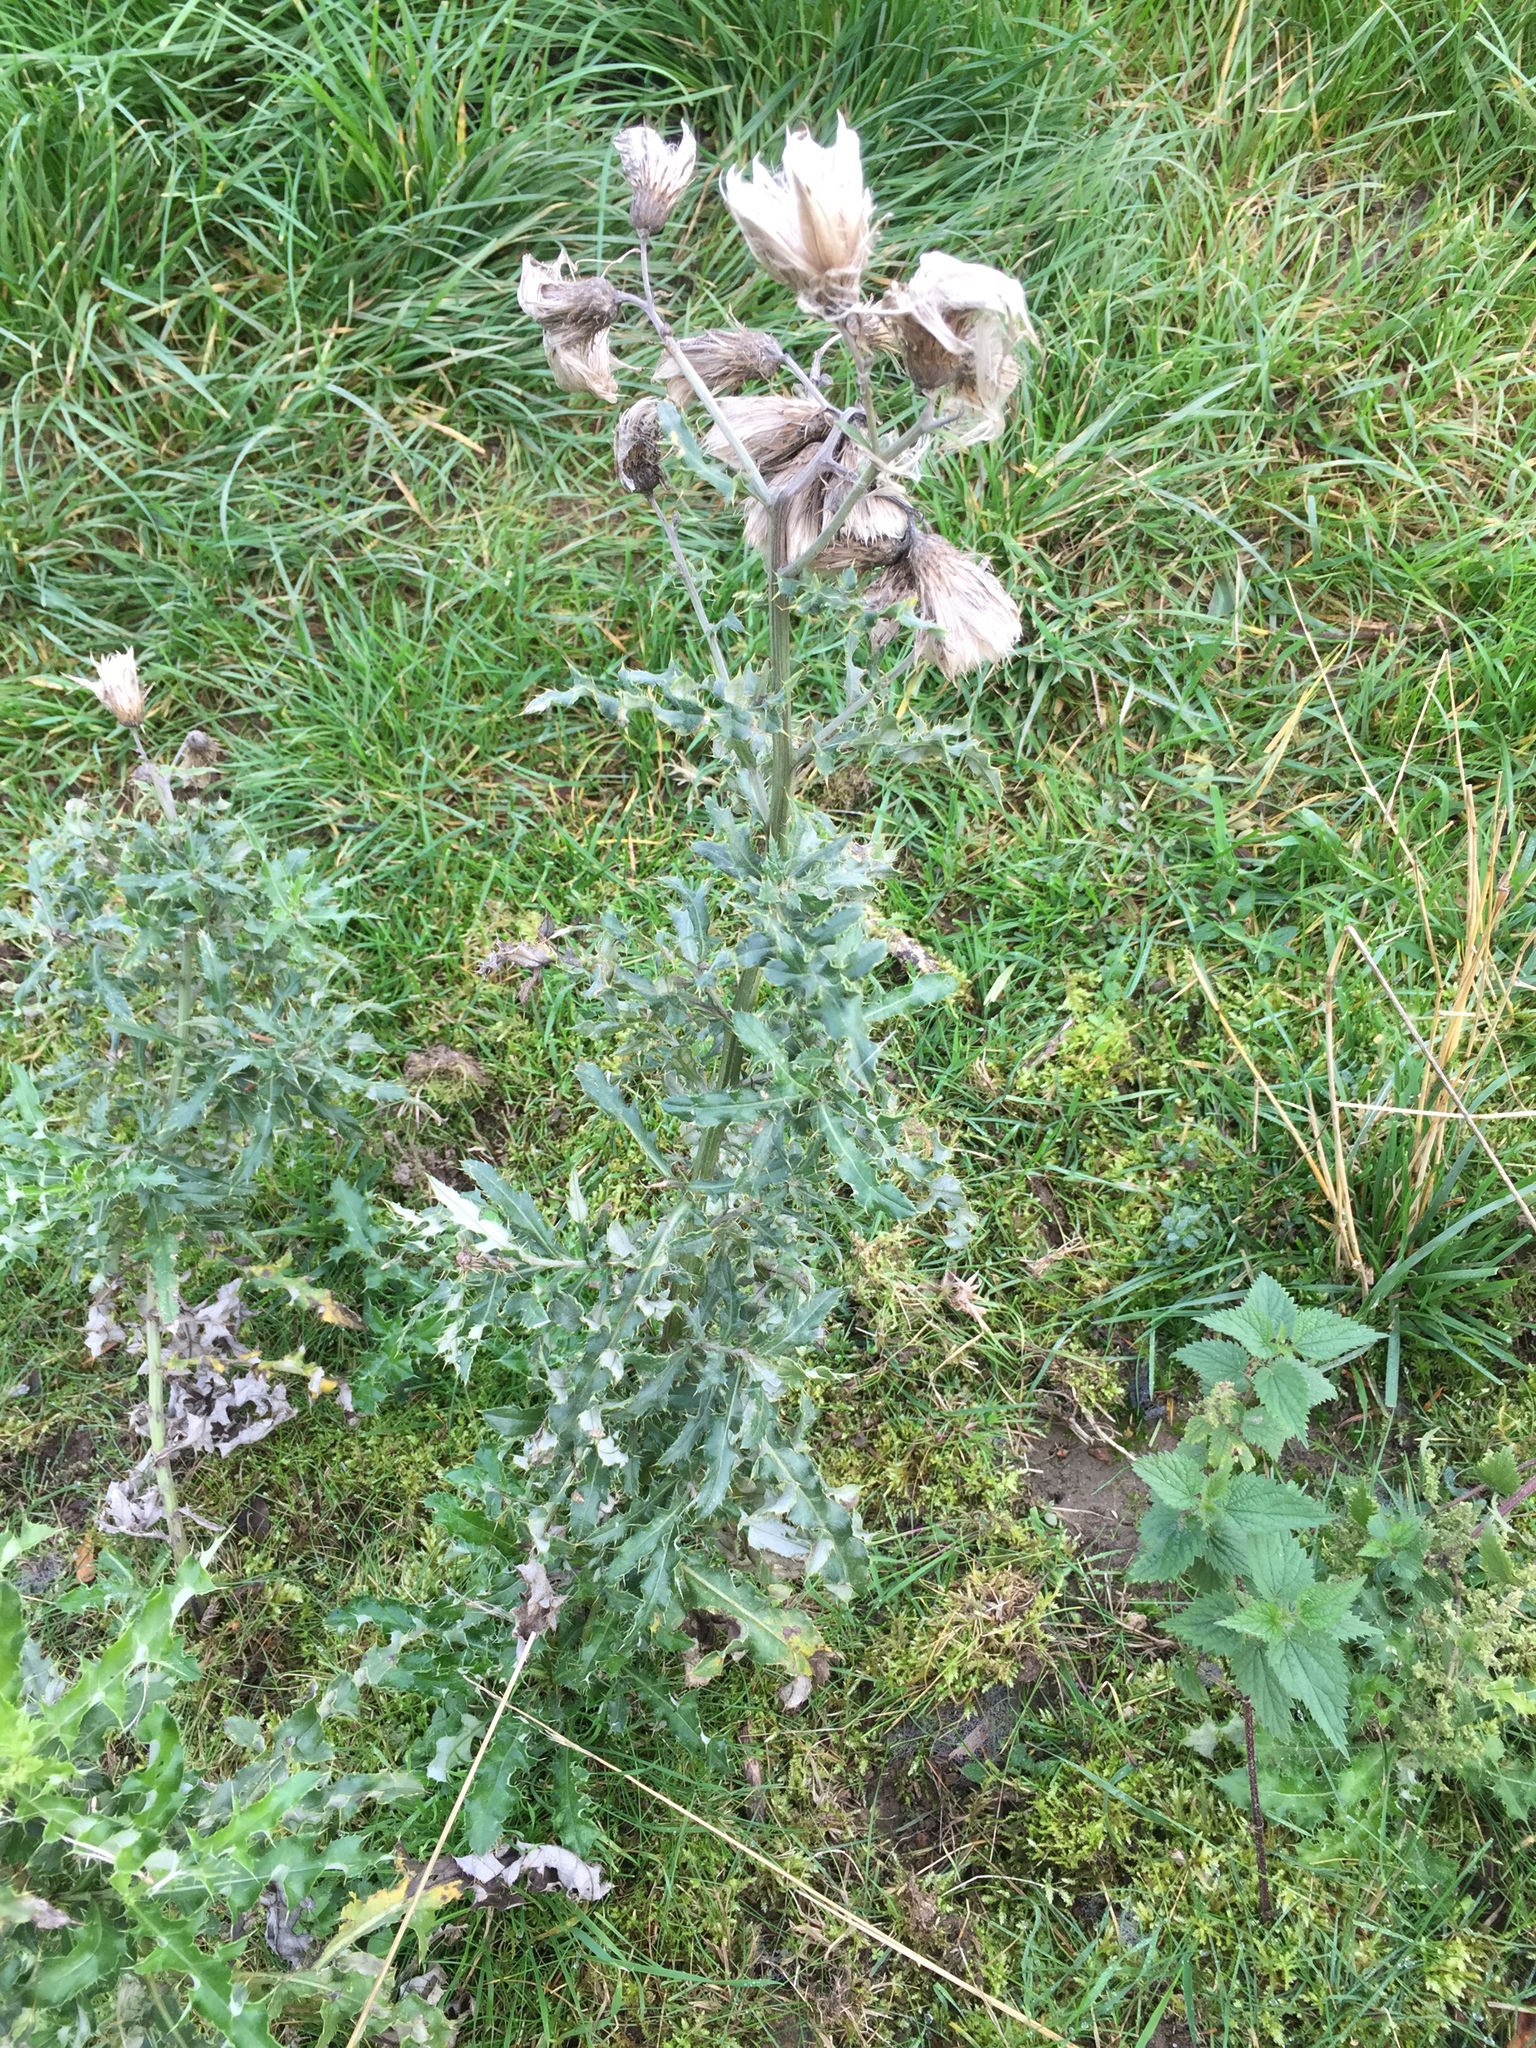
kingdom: Plantae
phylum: Tracheophyta
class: Magnoliopsida
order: Asterales
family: Asteraceae
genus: Cirsium
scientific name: Cirsium arvense
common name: Creeping thistle
